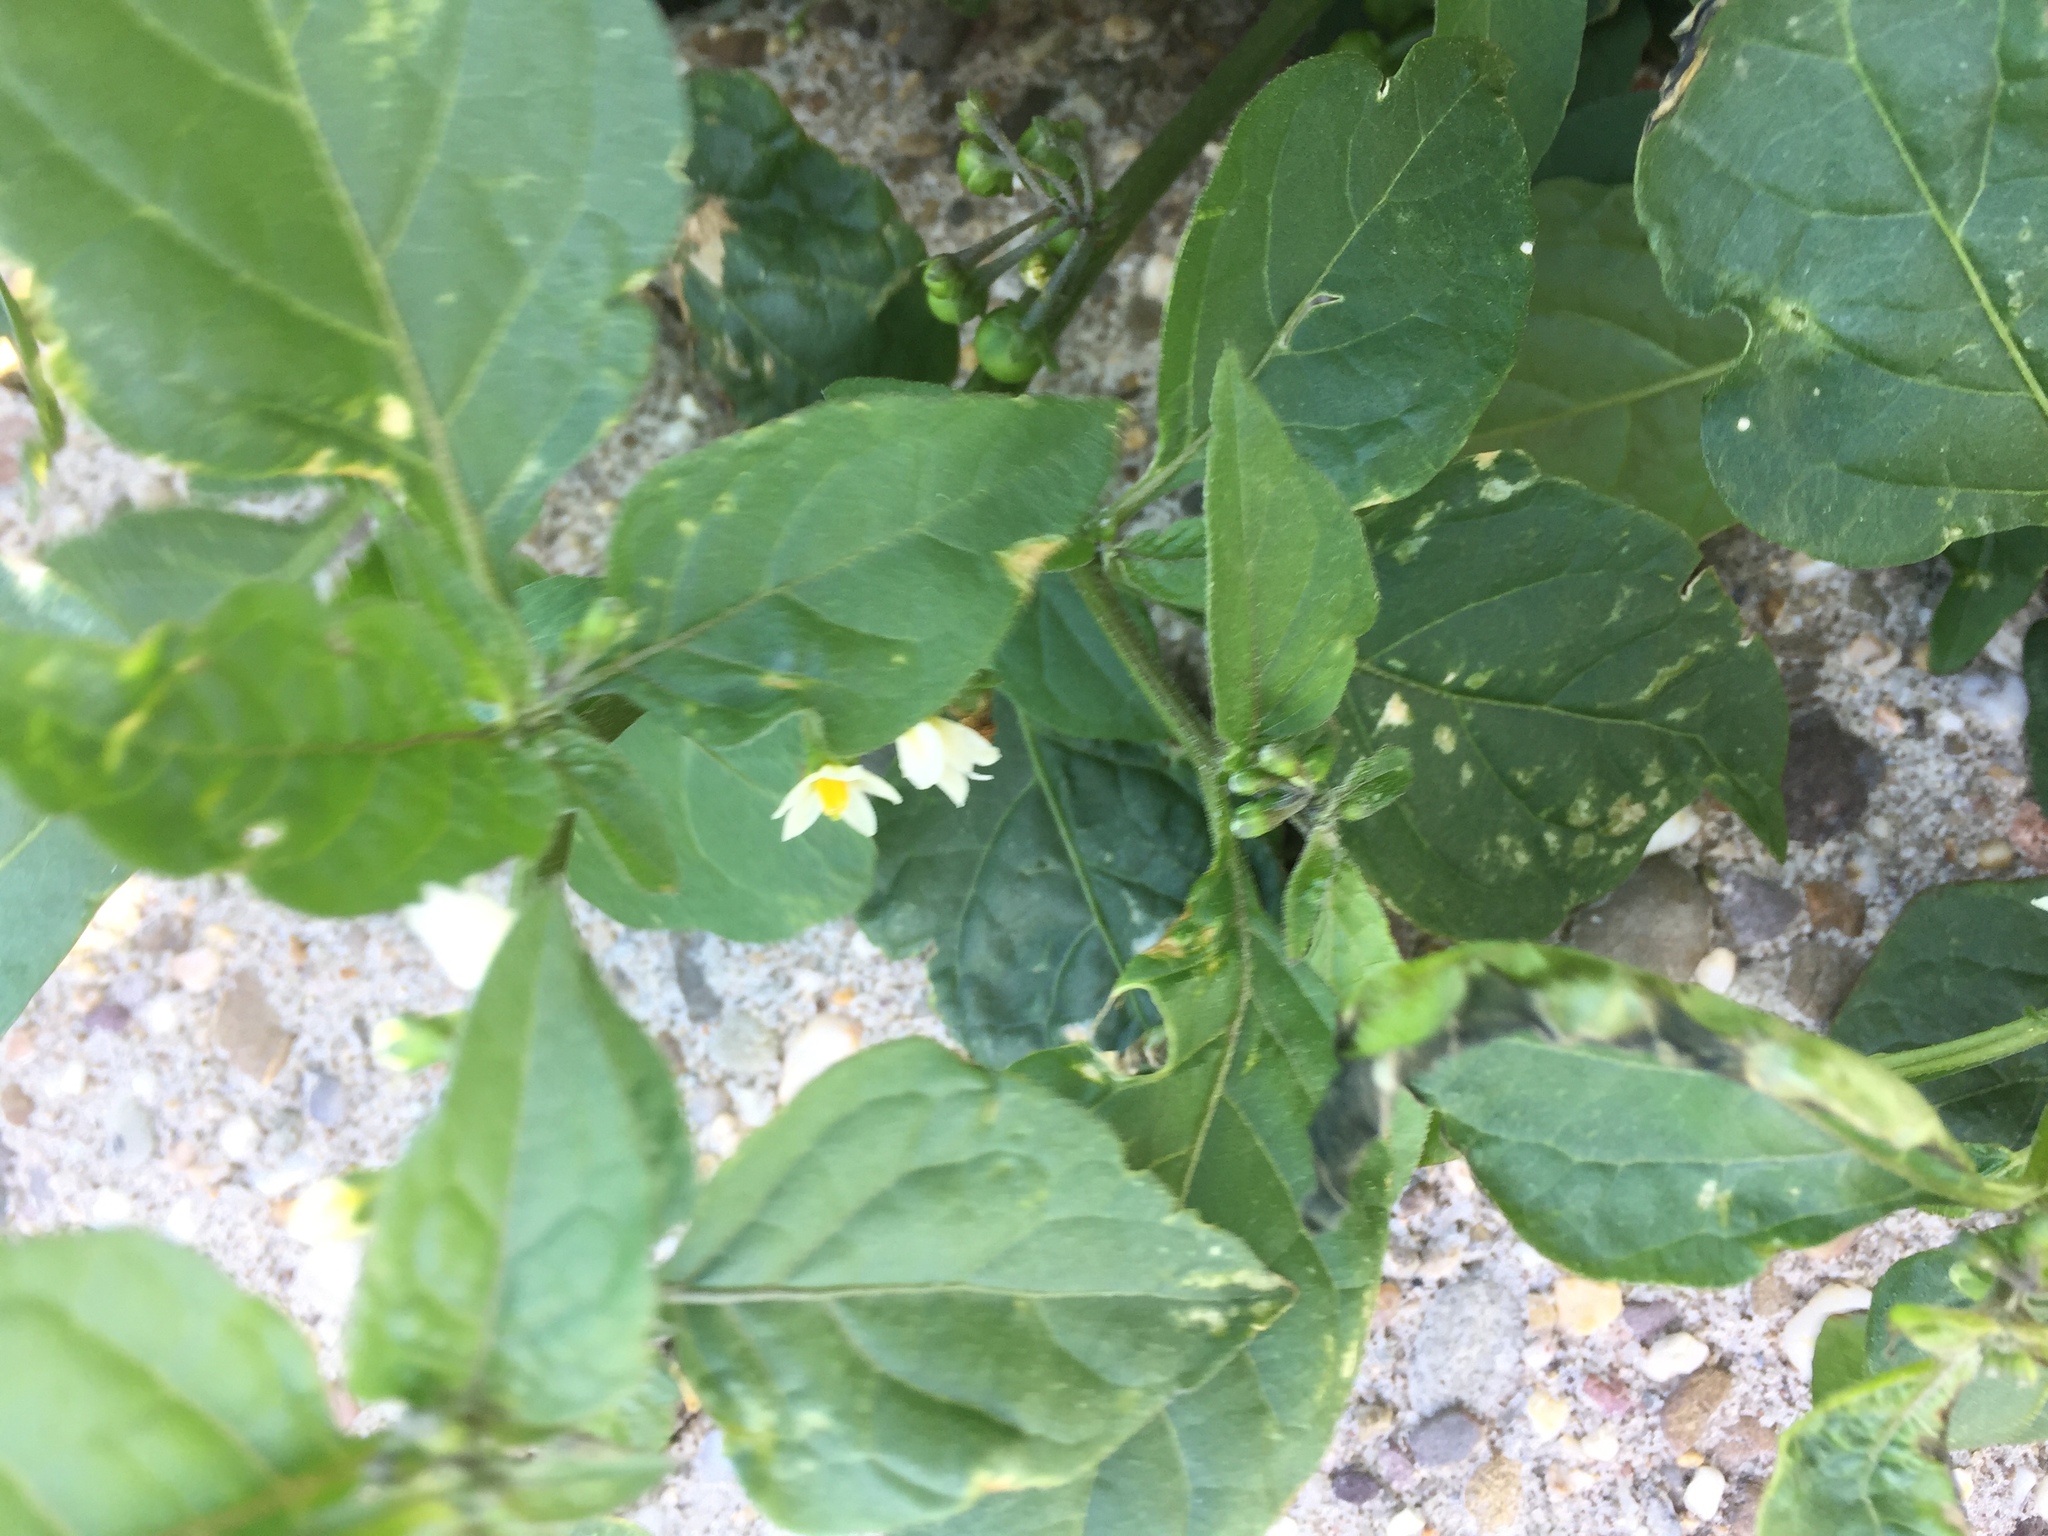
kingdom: Plantae
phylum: Tracheophyta
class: Magnoliopsida
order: Solanales
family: Solanaceae
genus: Solanum
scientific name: Solanum nigrum
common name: Black nightshade
